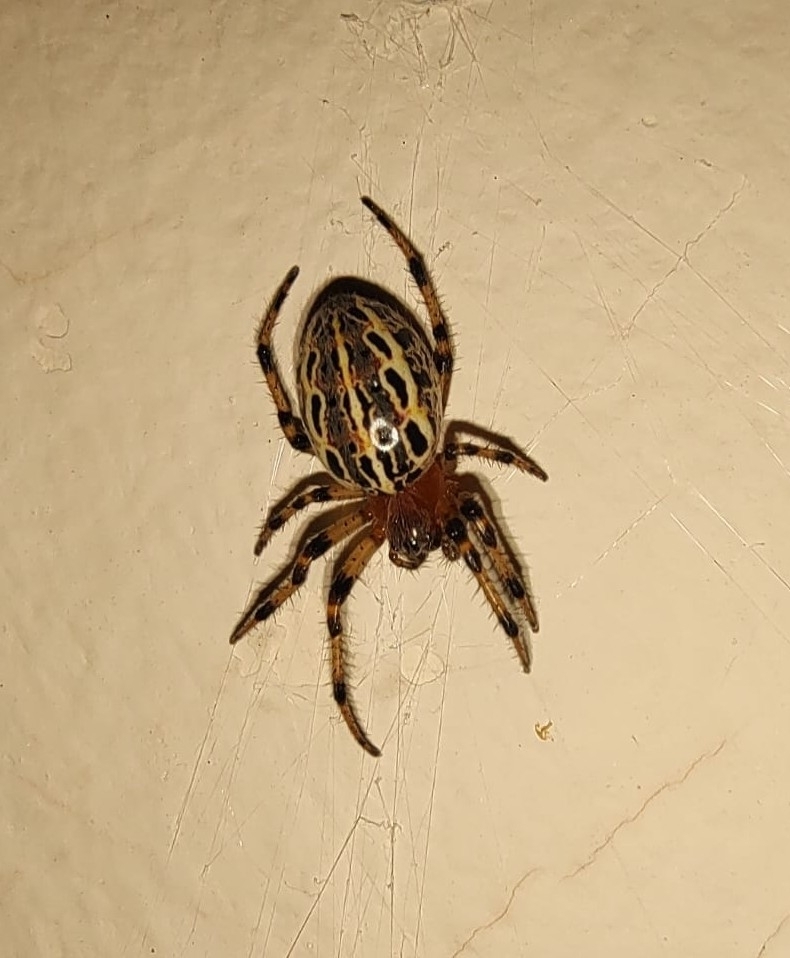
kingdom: Animalia
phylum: Arthropoda
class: Arachnida
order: Araneae
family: Araneidae
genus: Alpaida
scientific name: Alpaida veniliae
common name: Orb weavers
